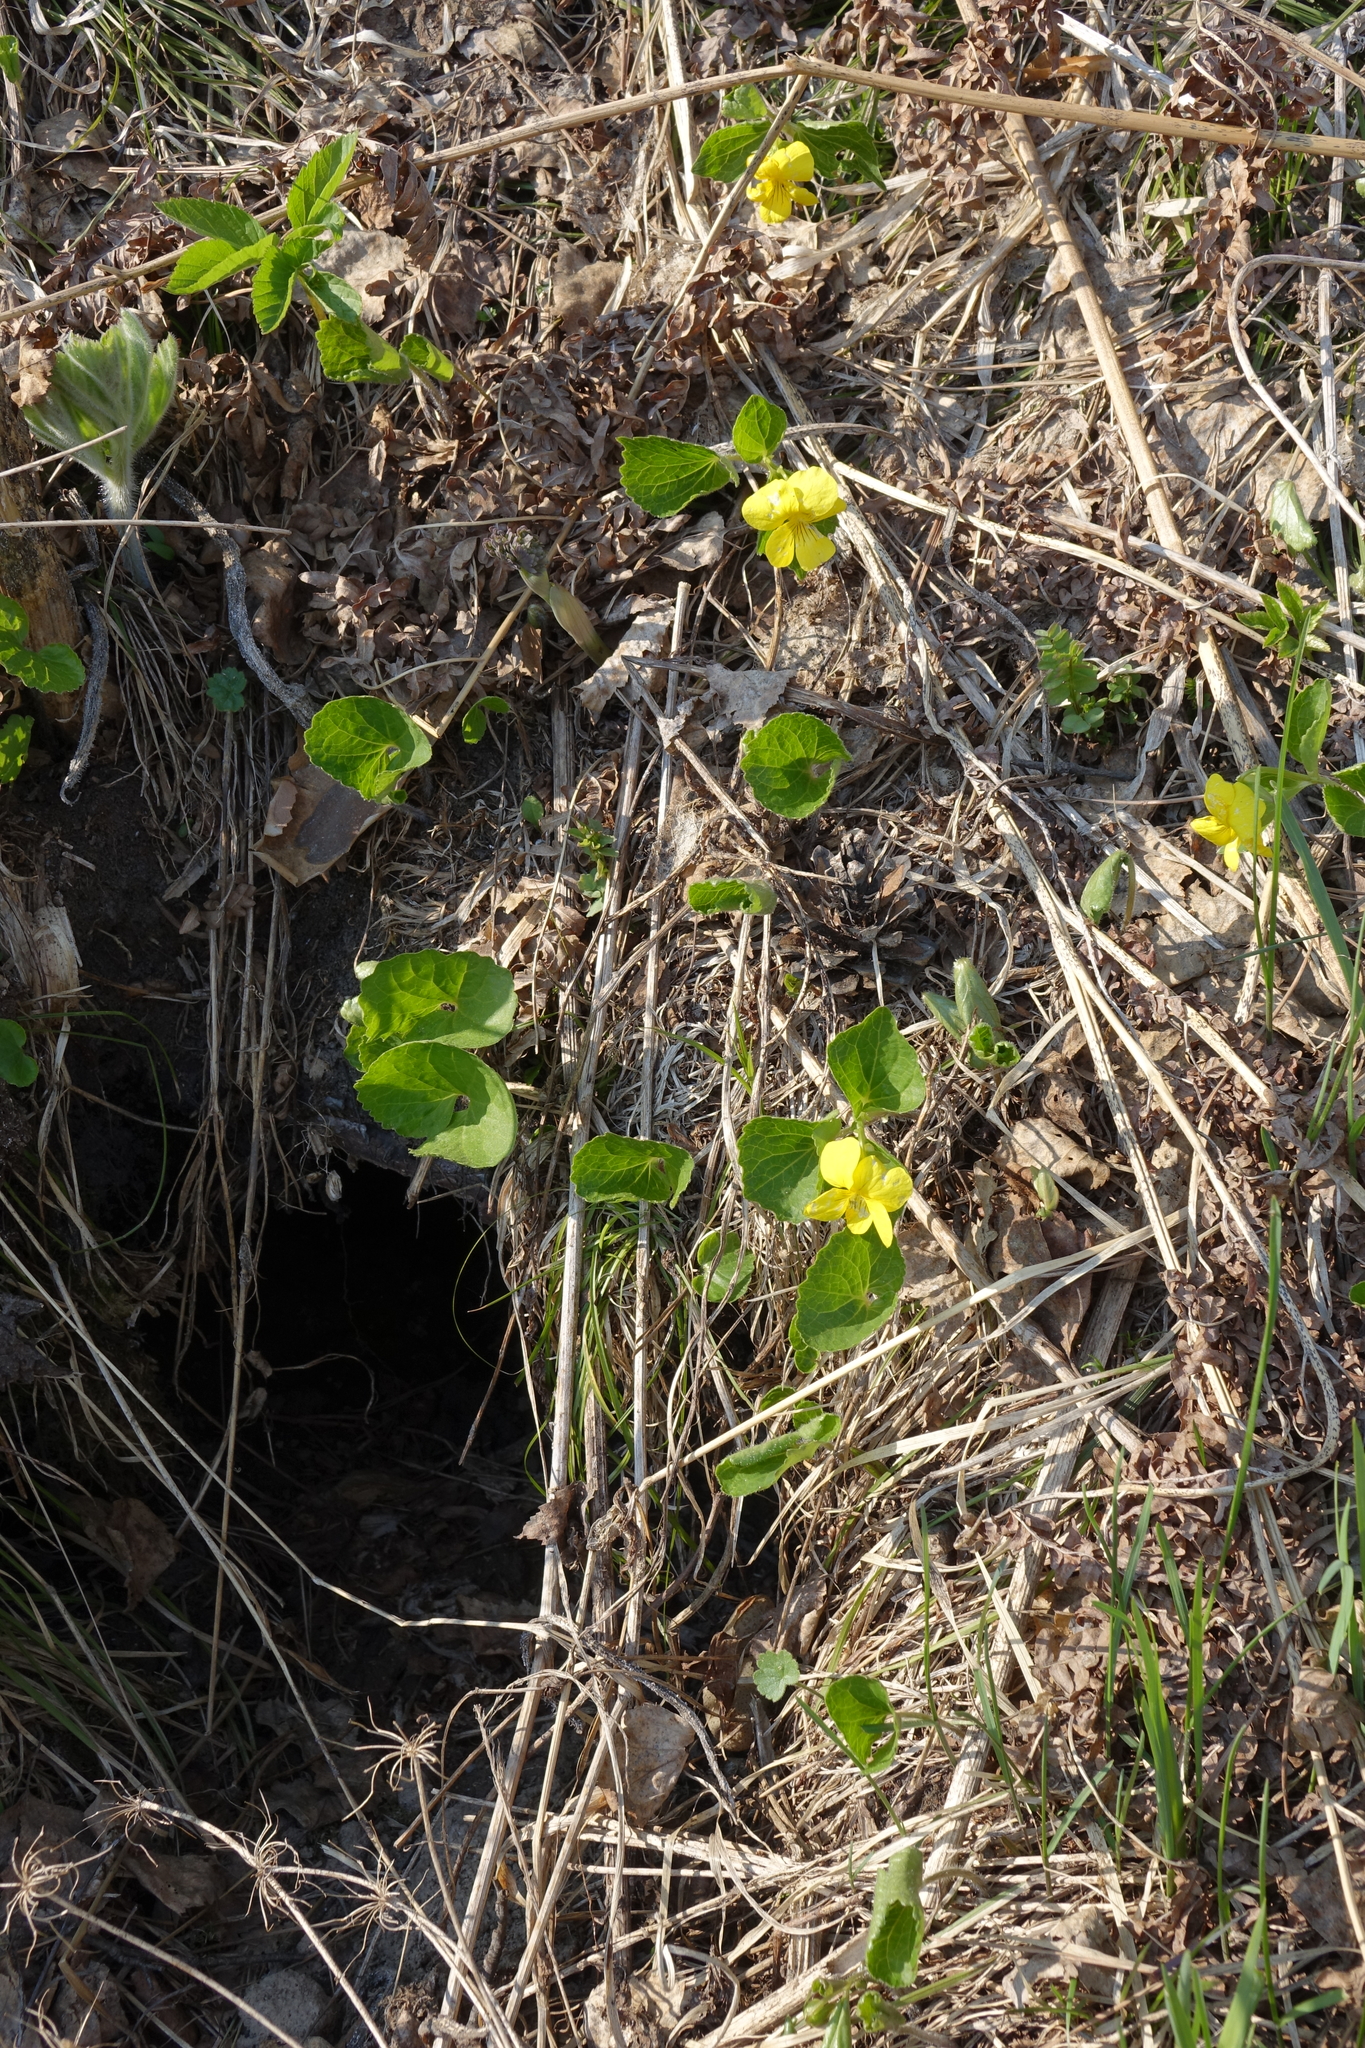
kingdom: Plantae
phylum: Tracheophyta
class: Magnoliopsida
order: Malpighiales
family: Violaceae
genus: Viola
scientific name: Viola uniflora
